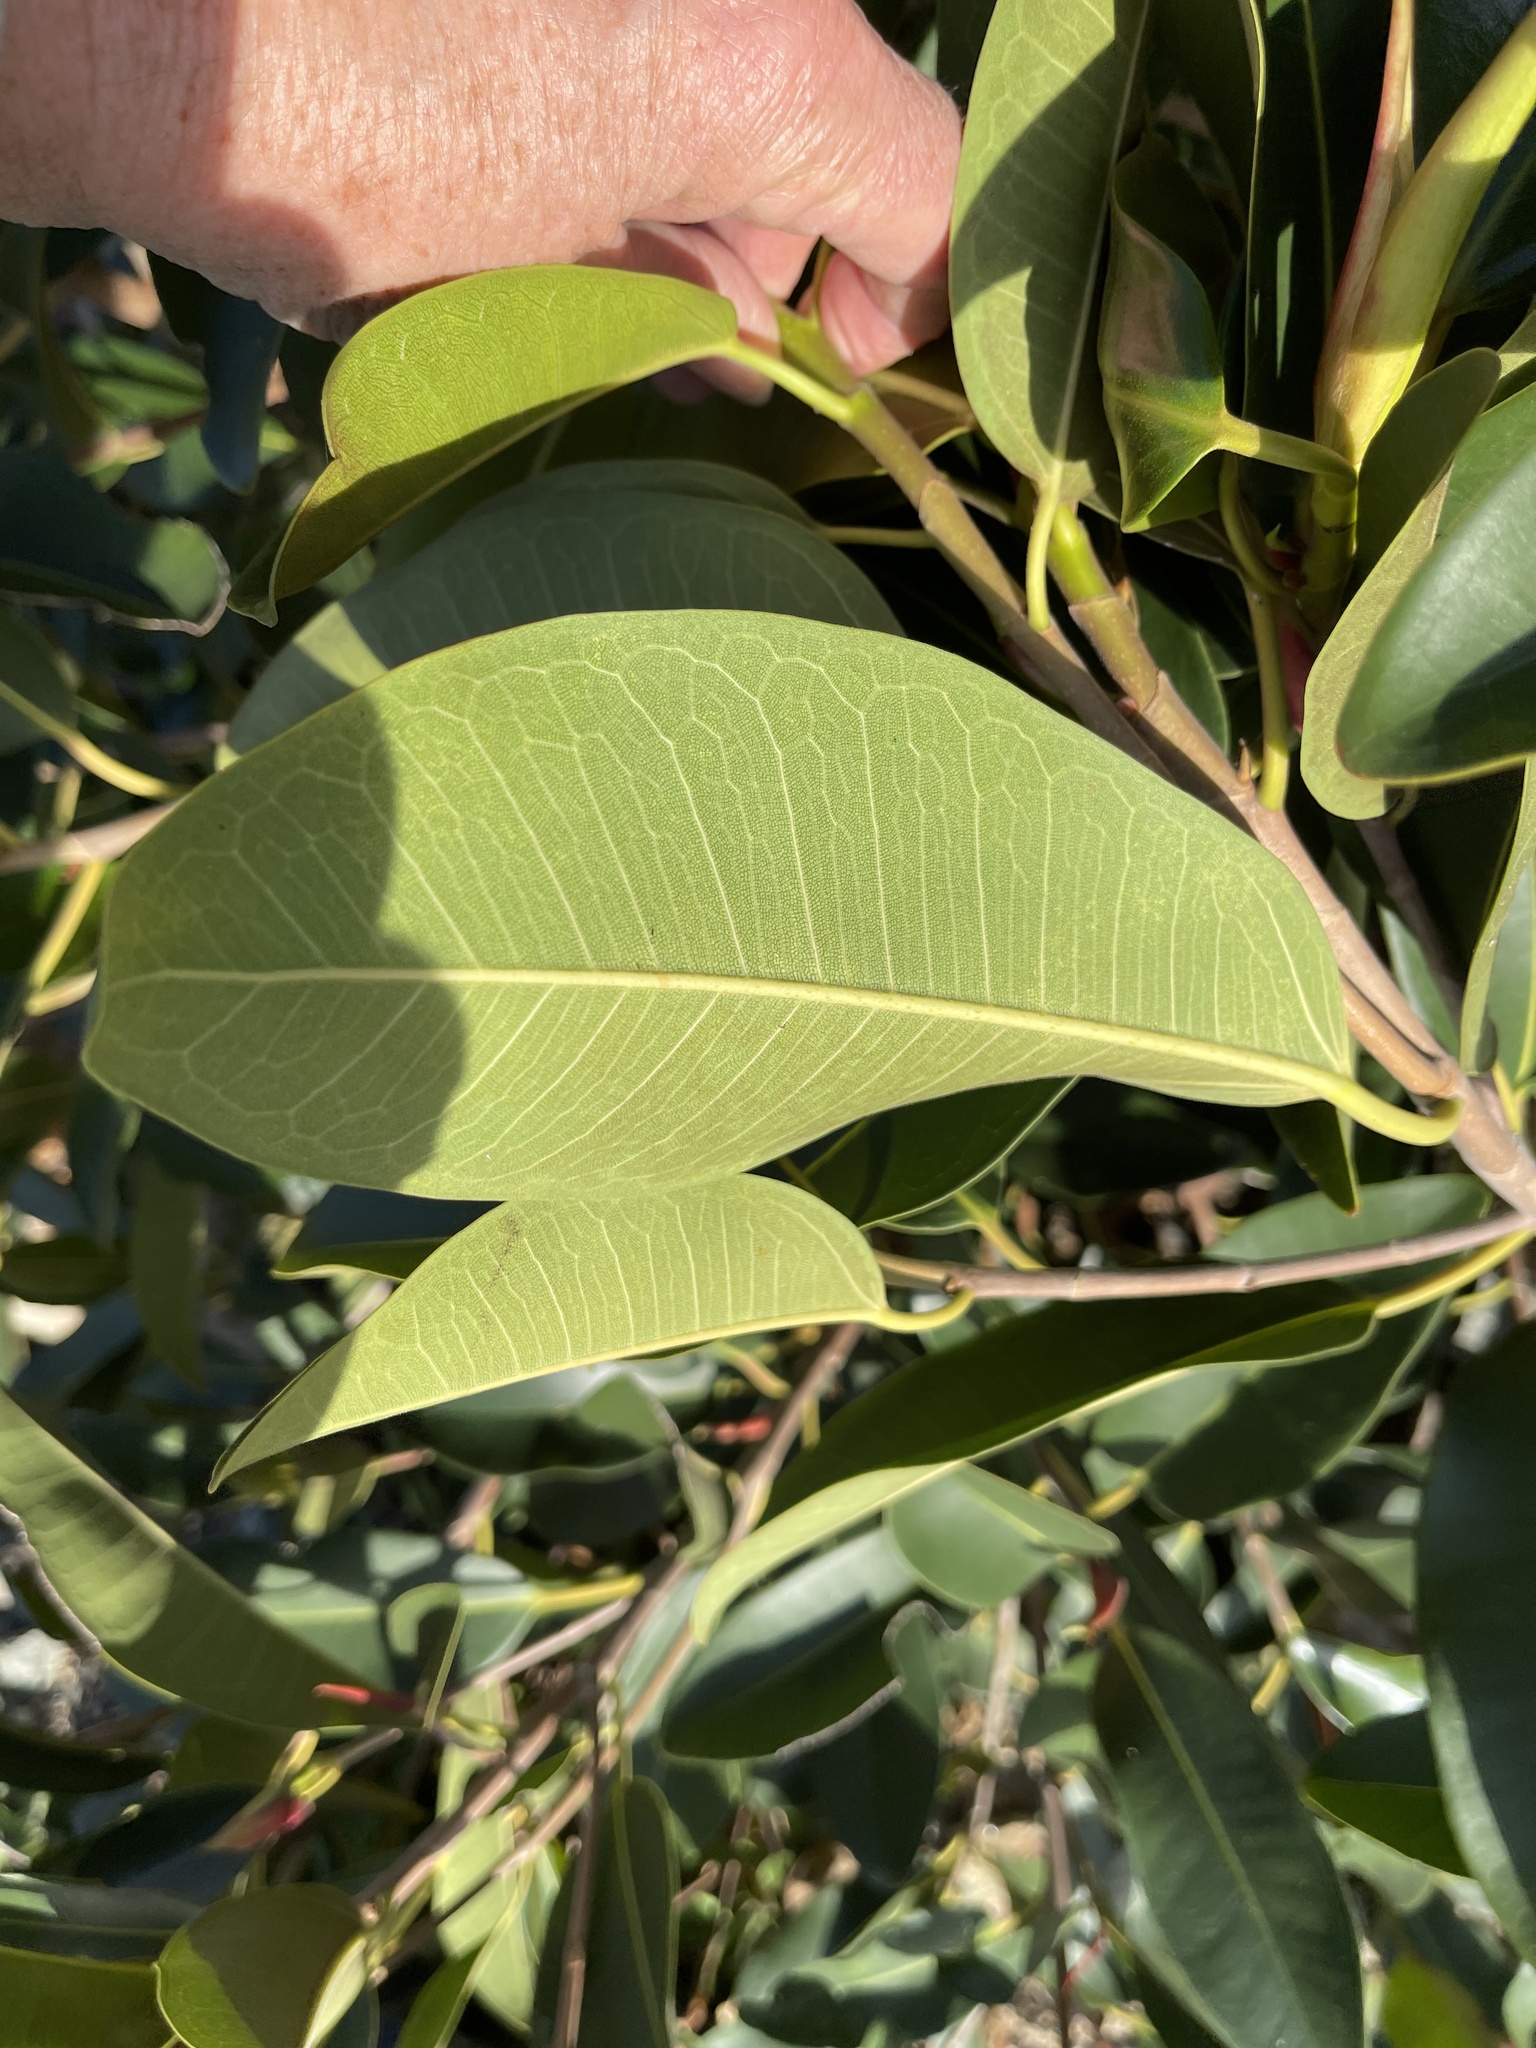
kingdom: Plantae
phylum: Tracheophyta
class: Magnoliopsida
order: Rosales
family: Moraceae
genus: Ficus
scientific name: Ficus rubiginosa
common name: Port jackson fig
